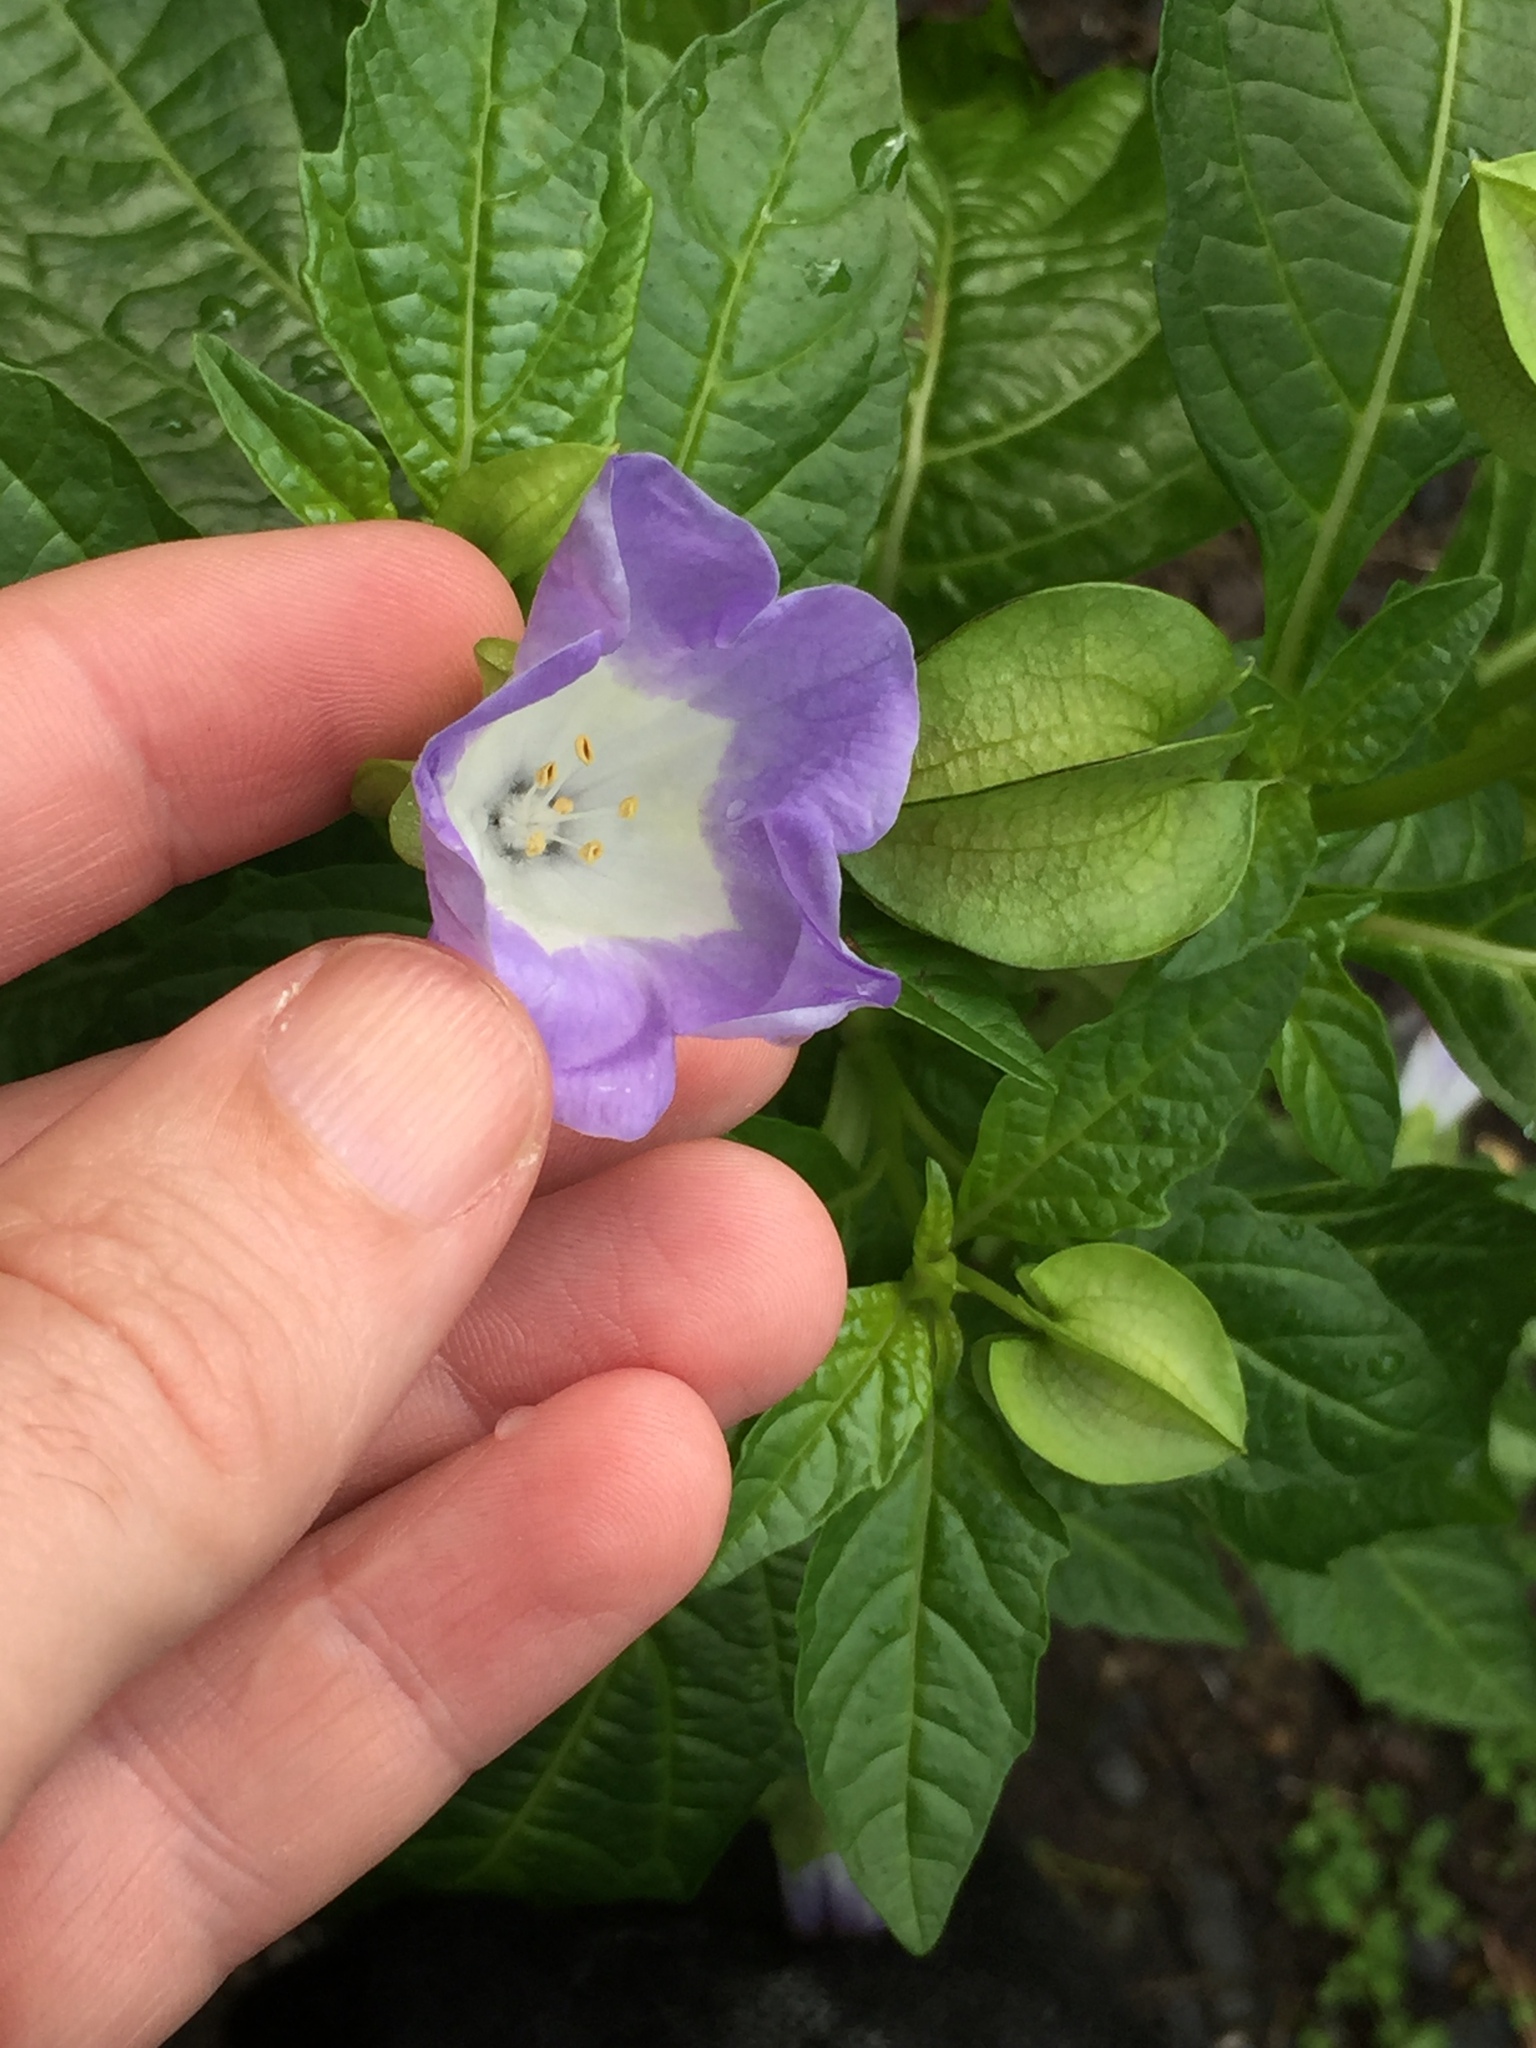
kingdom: Plantae
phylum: Tracheophyta
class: Magnoliopsida
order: Solanales
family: Solanaceae
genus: Nicandra
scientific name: Nicandra physalodes
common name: Apple-of-peru
